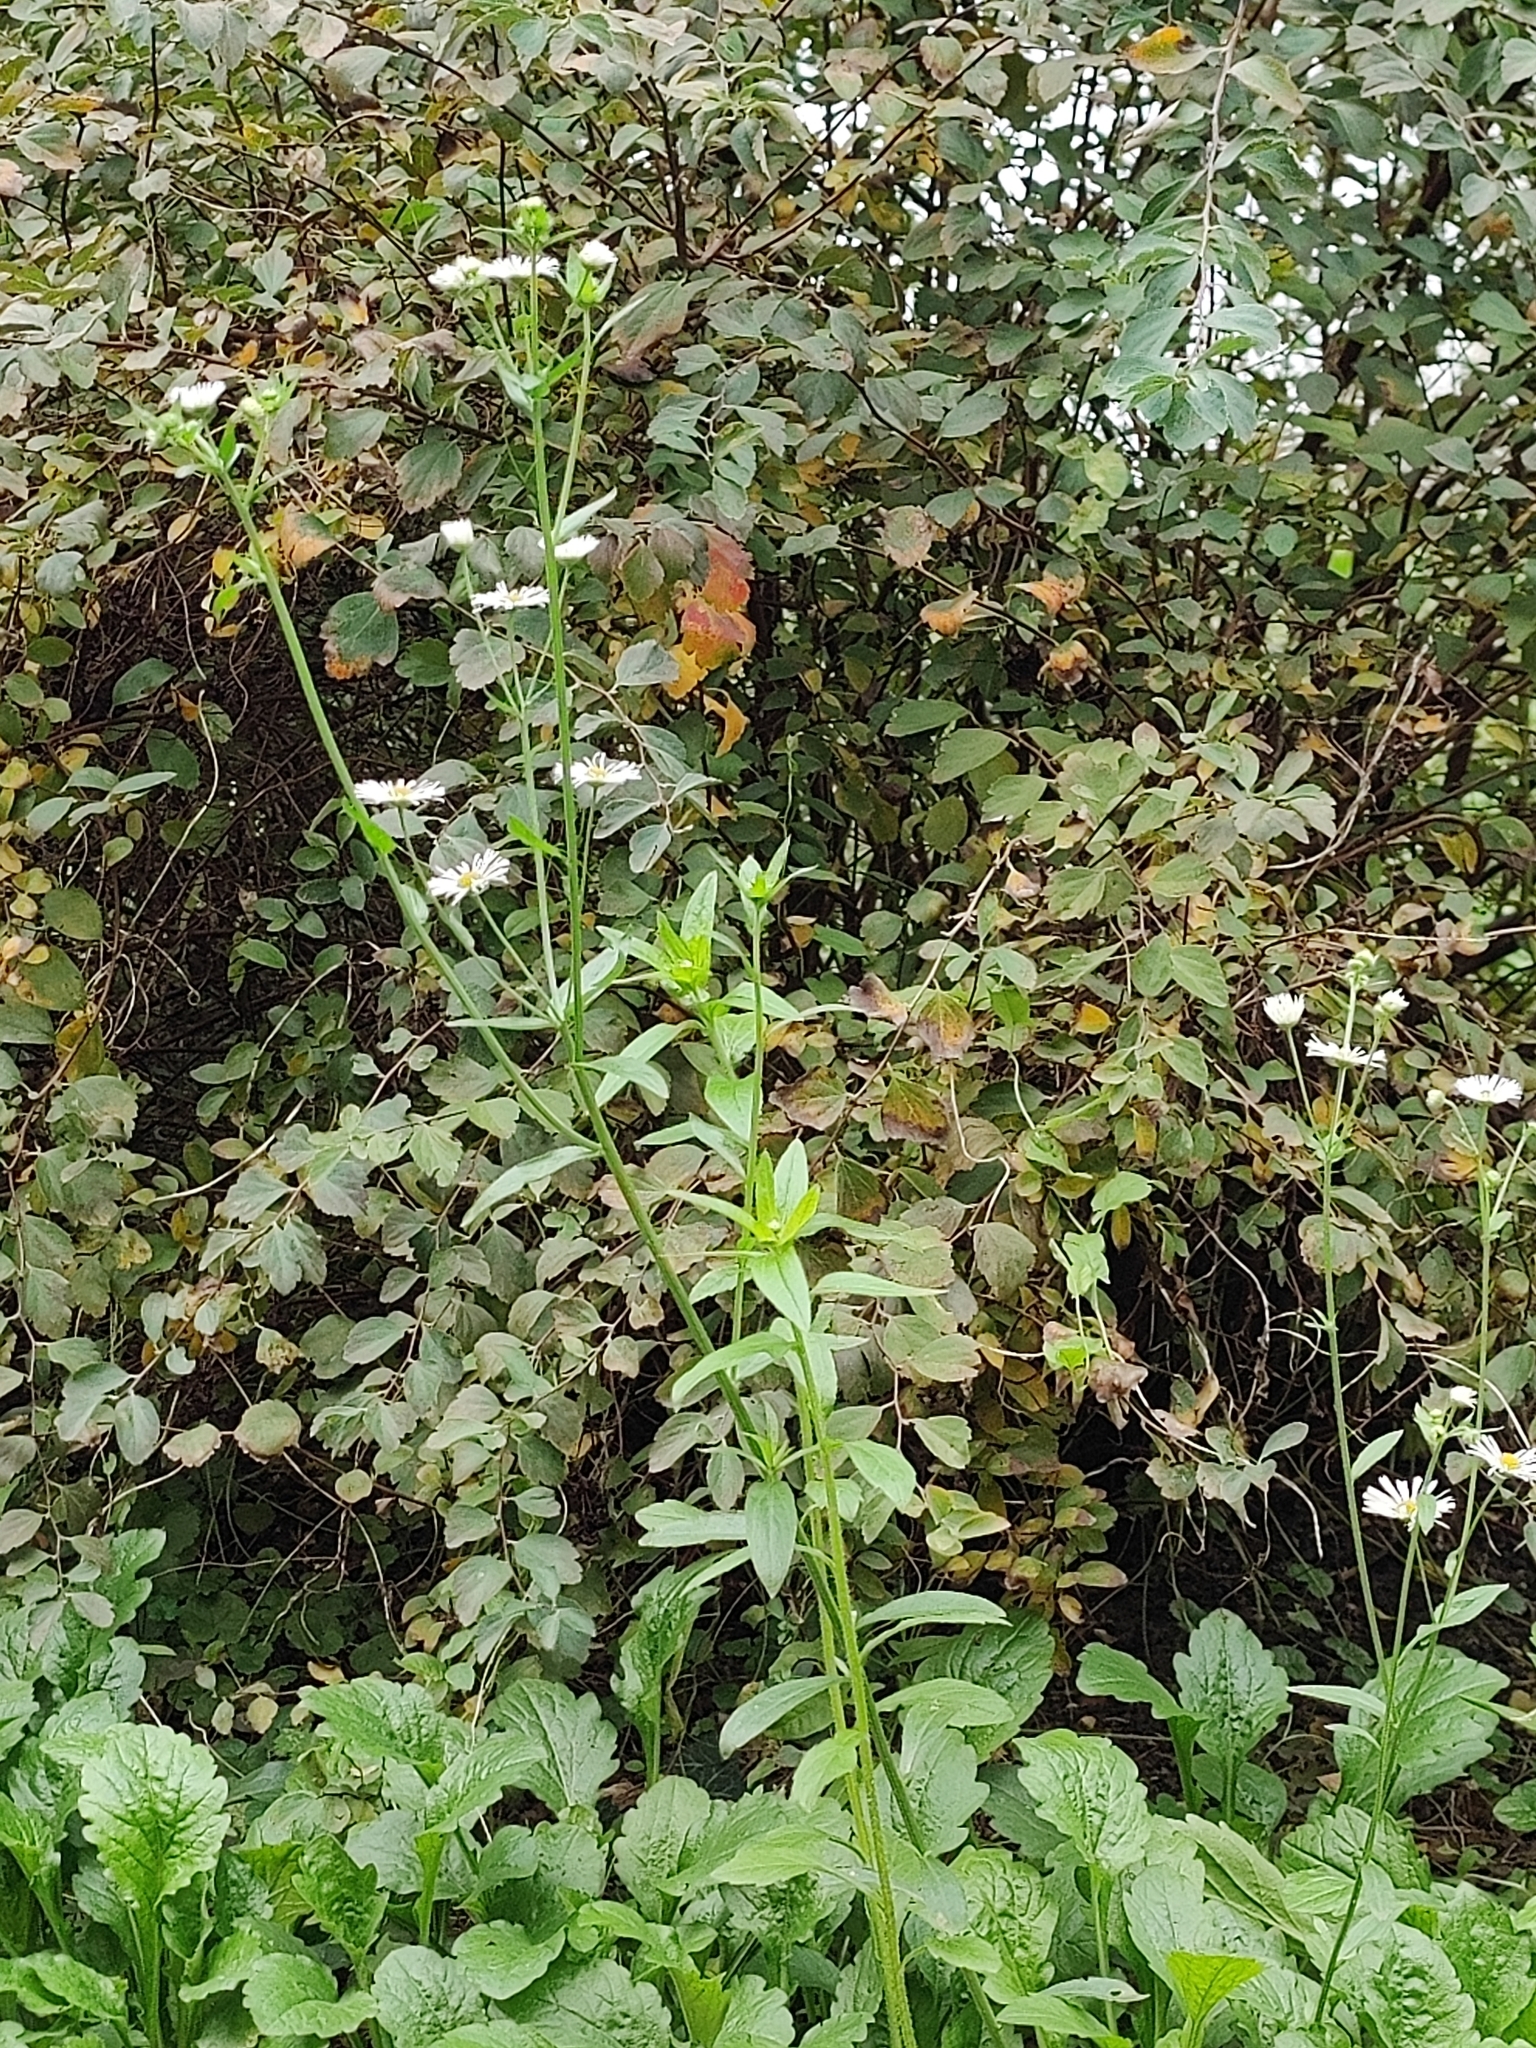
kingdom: Plantae
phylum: Tracheophyta
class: Magnoliopsida
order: Asterales
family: Asteraceae
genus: Erigeron
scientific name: Erigeron annuus
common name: Tall fleabane
